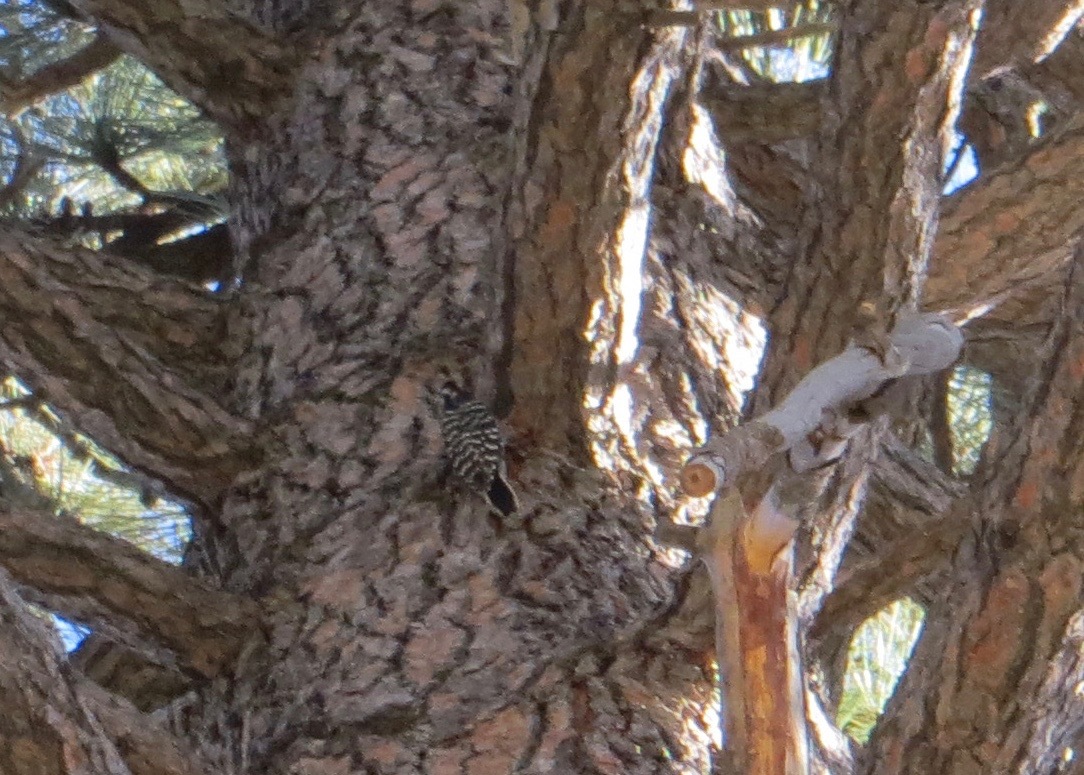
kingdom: Animalia
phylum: Chordata
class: Aves
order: Piciformes
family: Picidae
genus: Dryobates
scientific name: Dryobates nuttallii
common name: Nuttall's woodpecker
